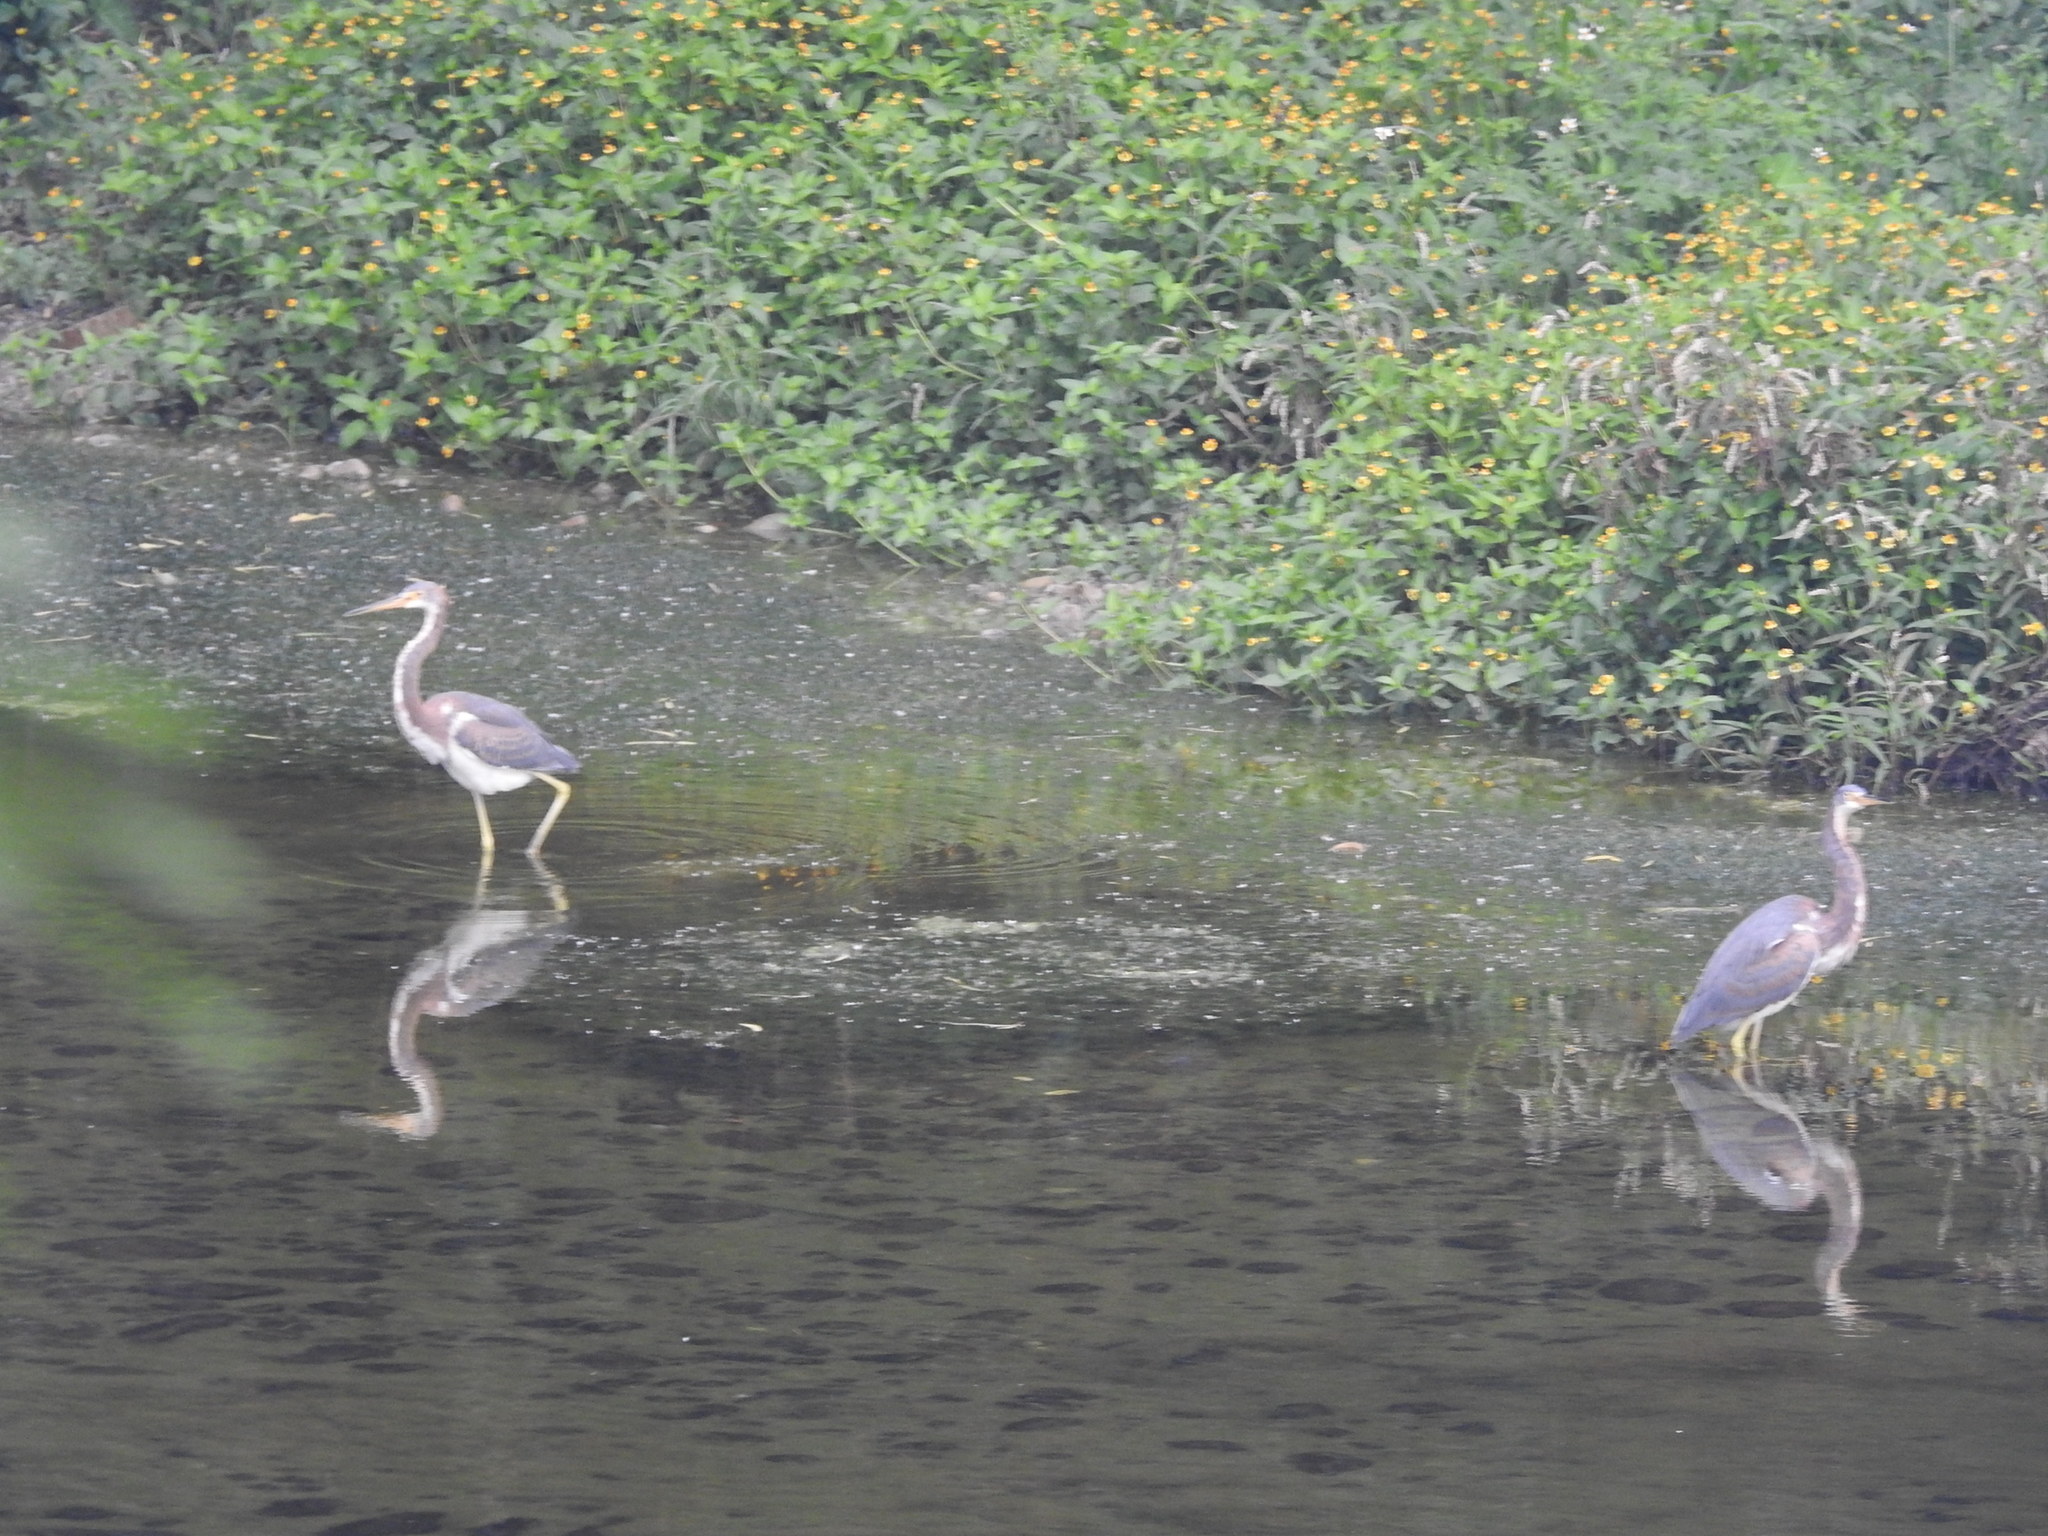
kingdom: Animalia
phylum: Chordata
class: Aves
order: Pelecaniformes
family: Ardeidae
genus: Egretta
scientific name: Egretta tricolor
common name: Tricolored heron
